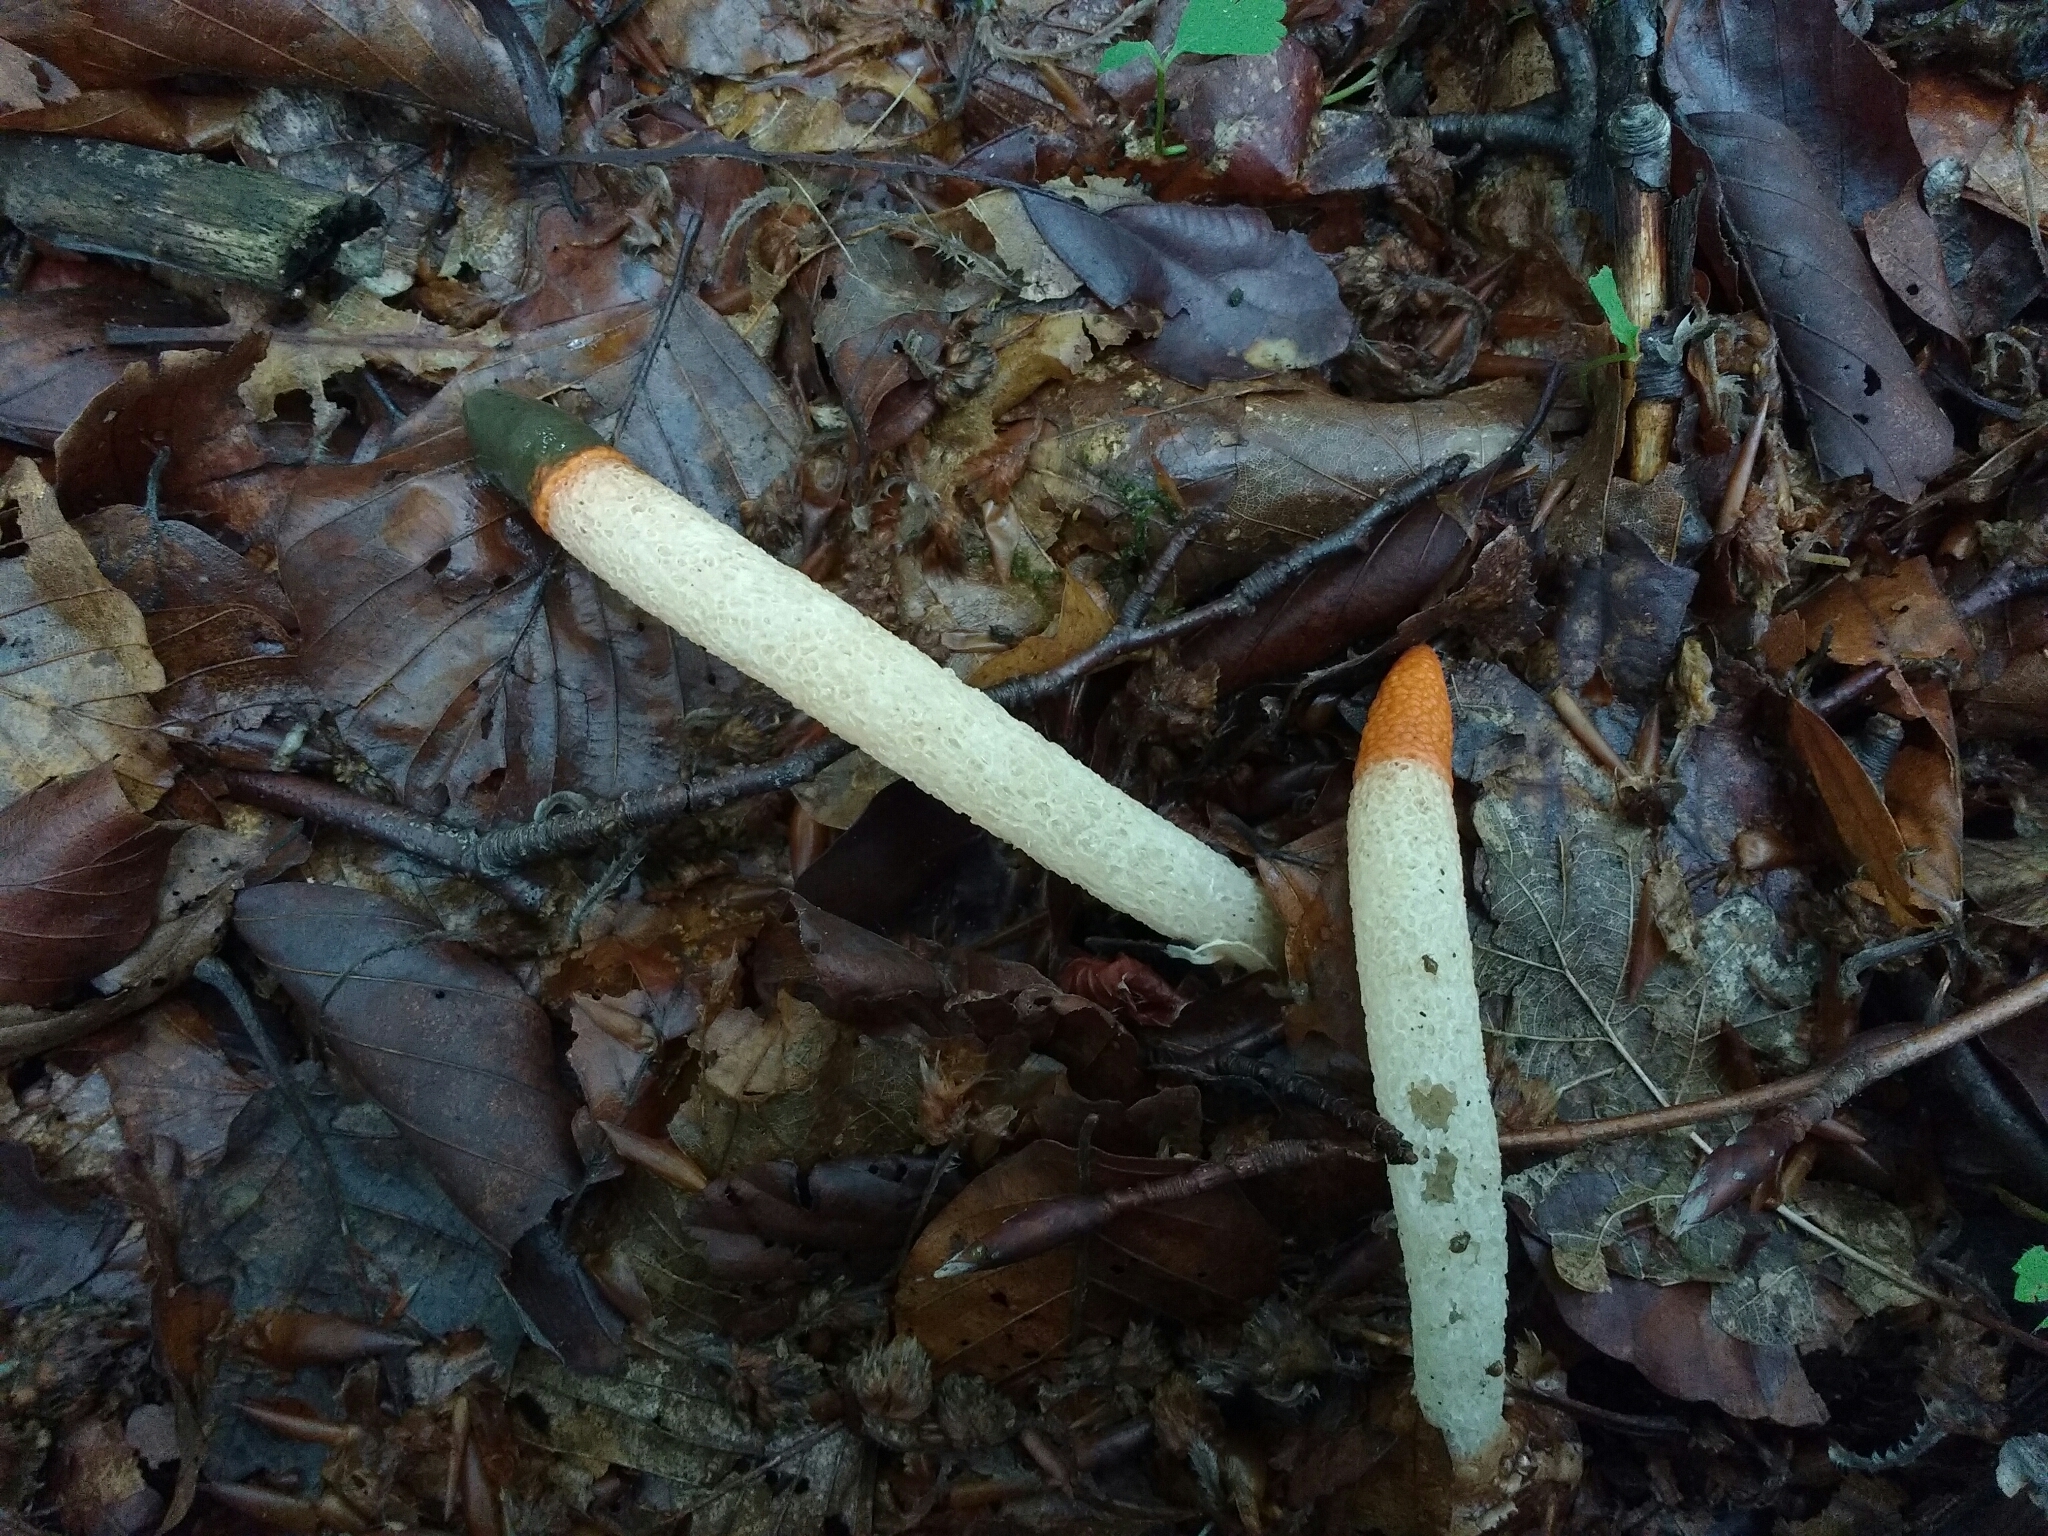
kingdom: Fungi
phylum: Basidiomycota
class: Agaricomycetes
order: Phallales
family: Phallaceae
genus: Mutinus
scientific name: Mutinus caninus
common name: Dog stinkhorn
